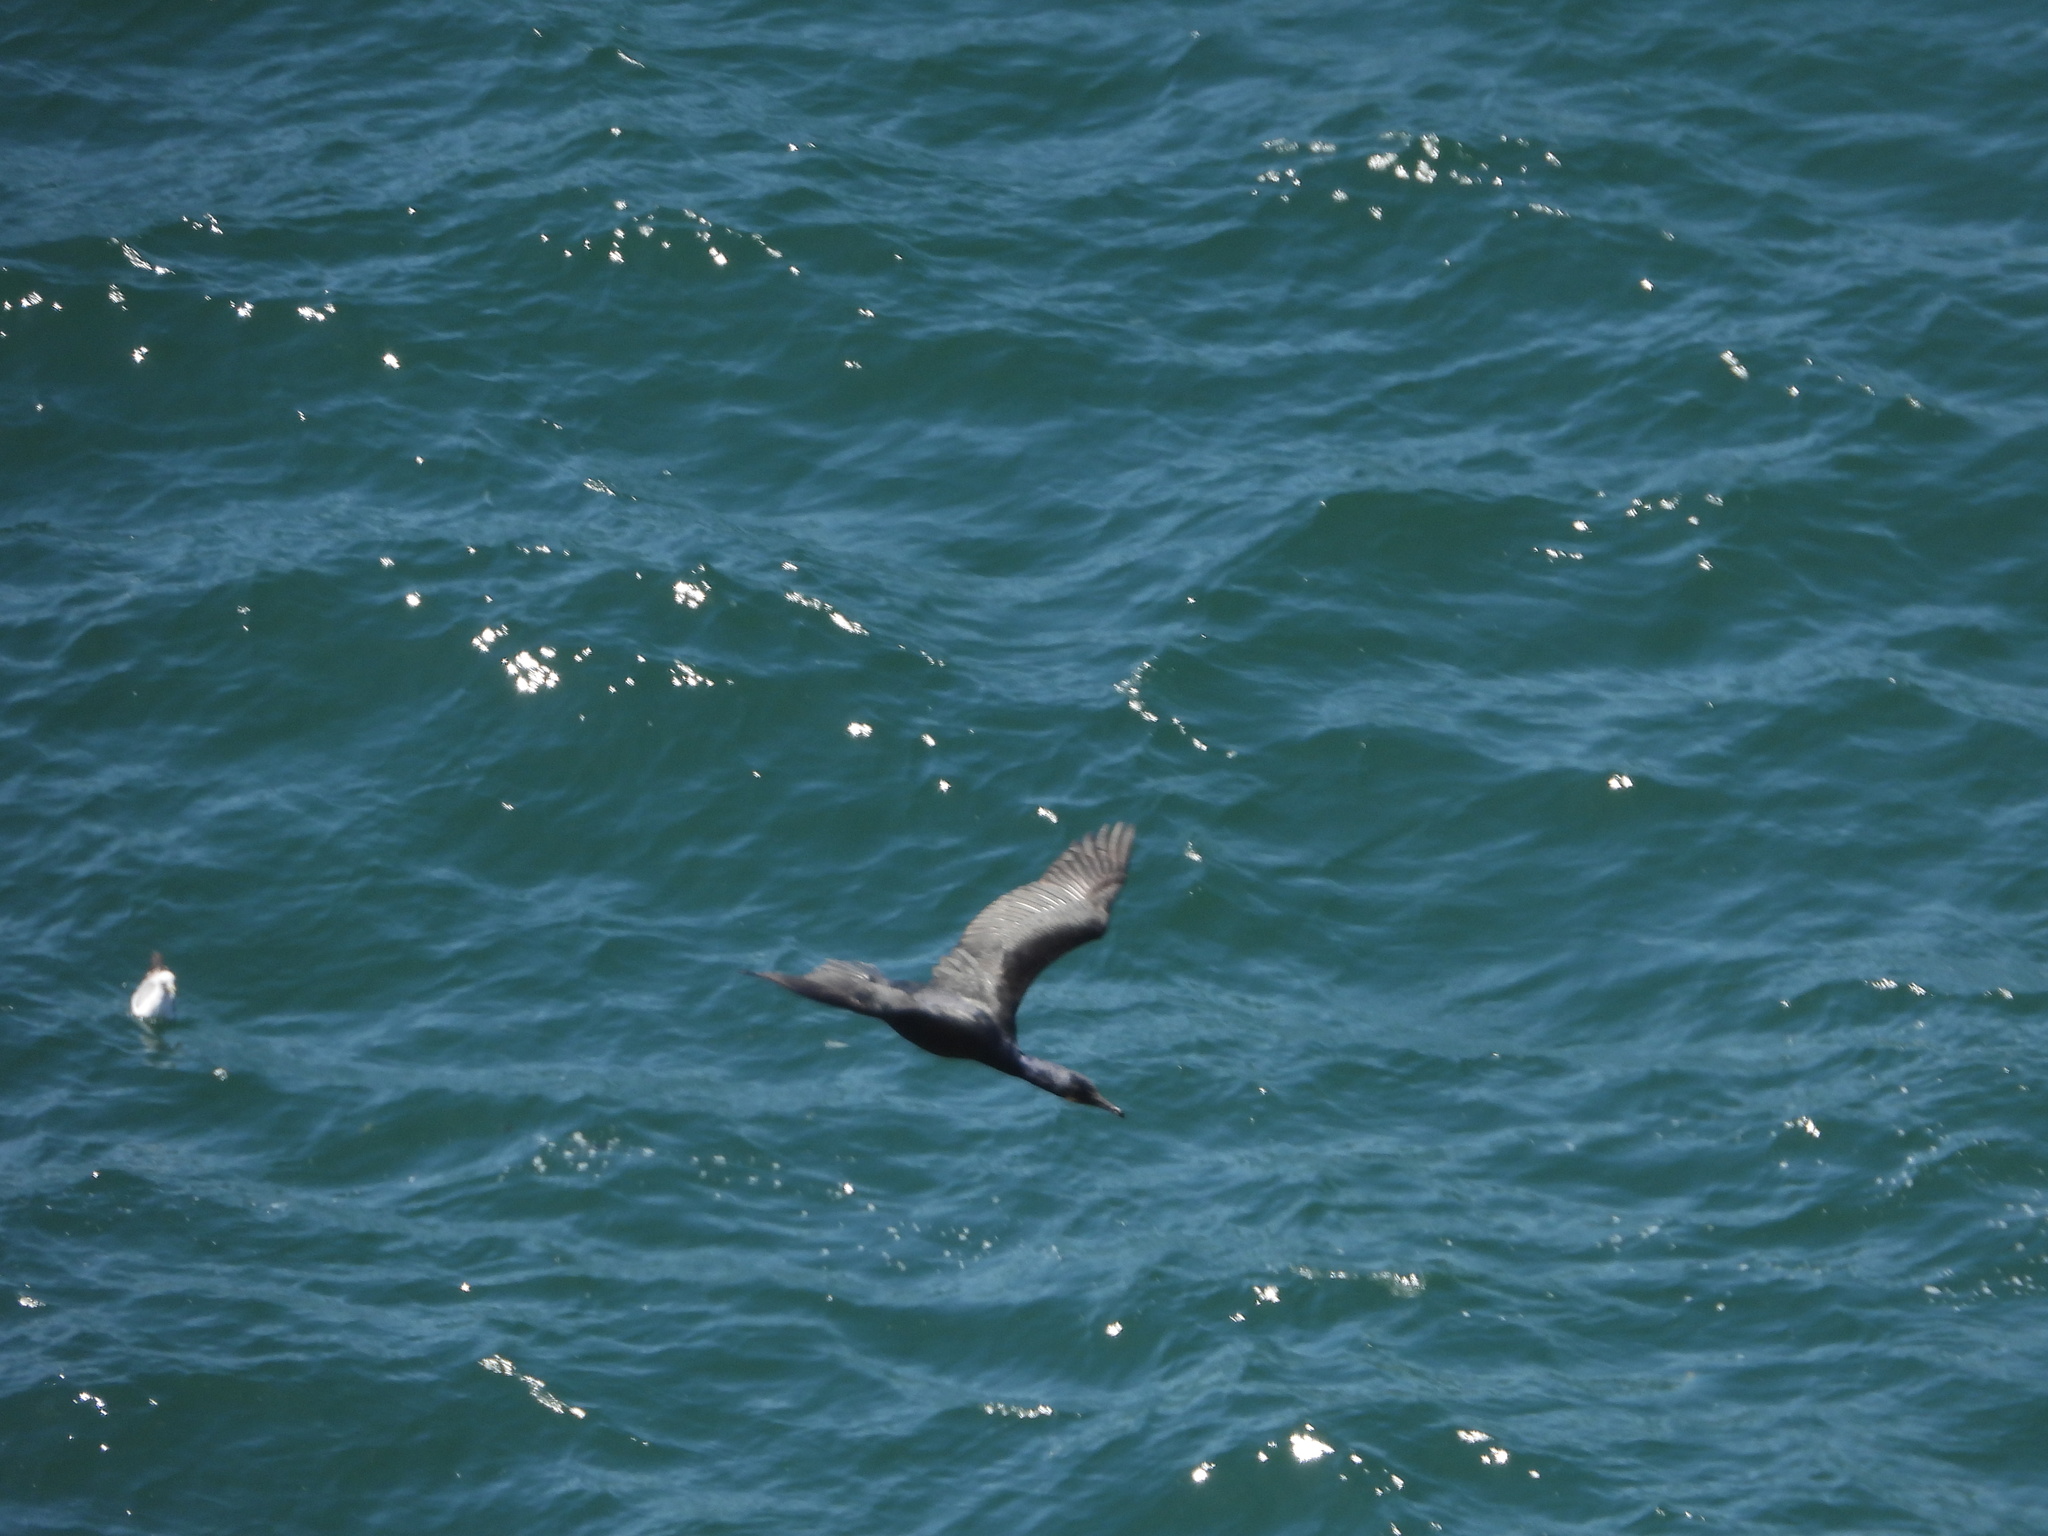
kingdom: Animalia
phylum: Chordata
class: Aves
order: Suliformes
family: Phalacrocoracidae
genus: Urile
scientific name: Urile penicillatus
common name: Brandt's cormorant
